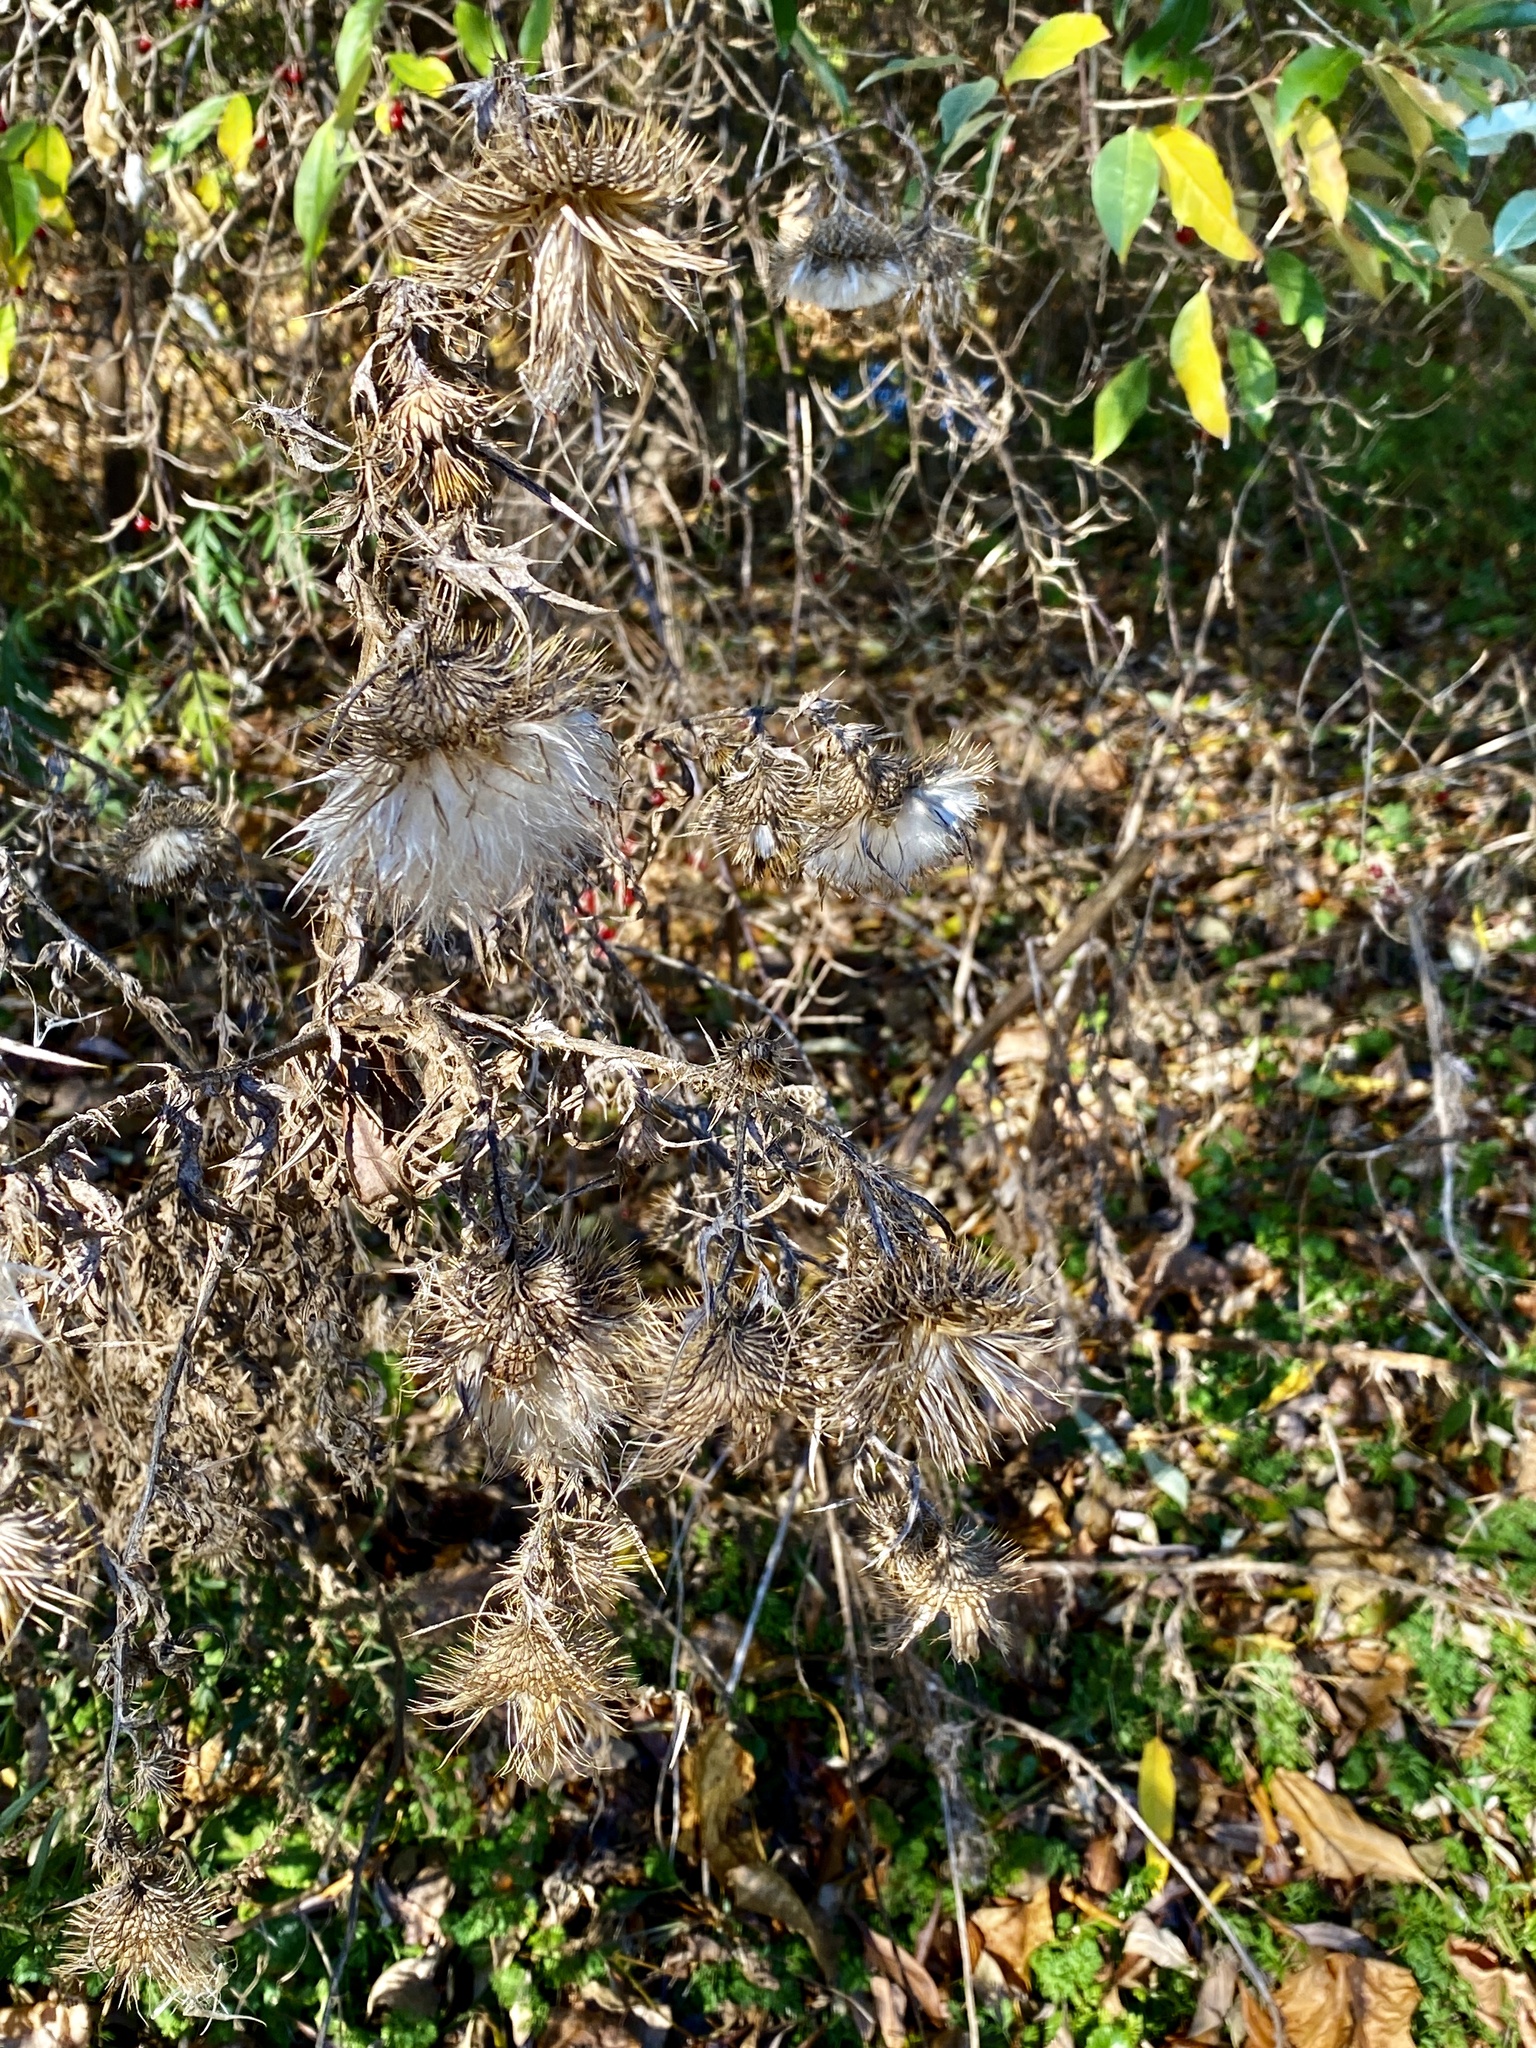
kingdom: Plantae
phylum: Tracheophyta
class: Magnoliopsida
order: Asterales
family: Asteraceae
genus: Cirsium
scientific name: Cirsium vulgare
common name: Bull thistle
